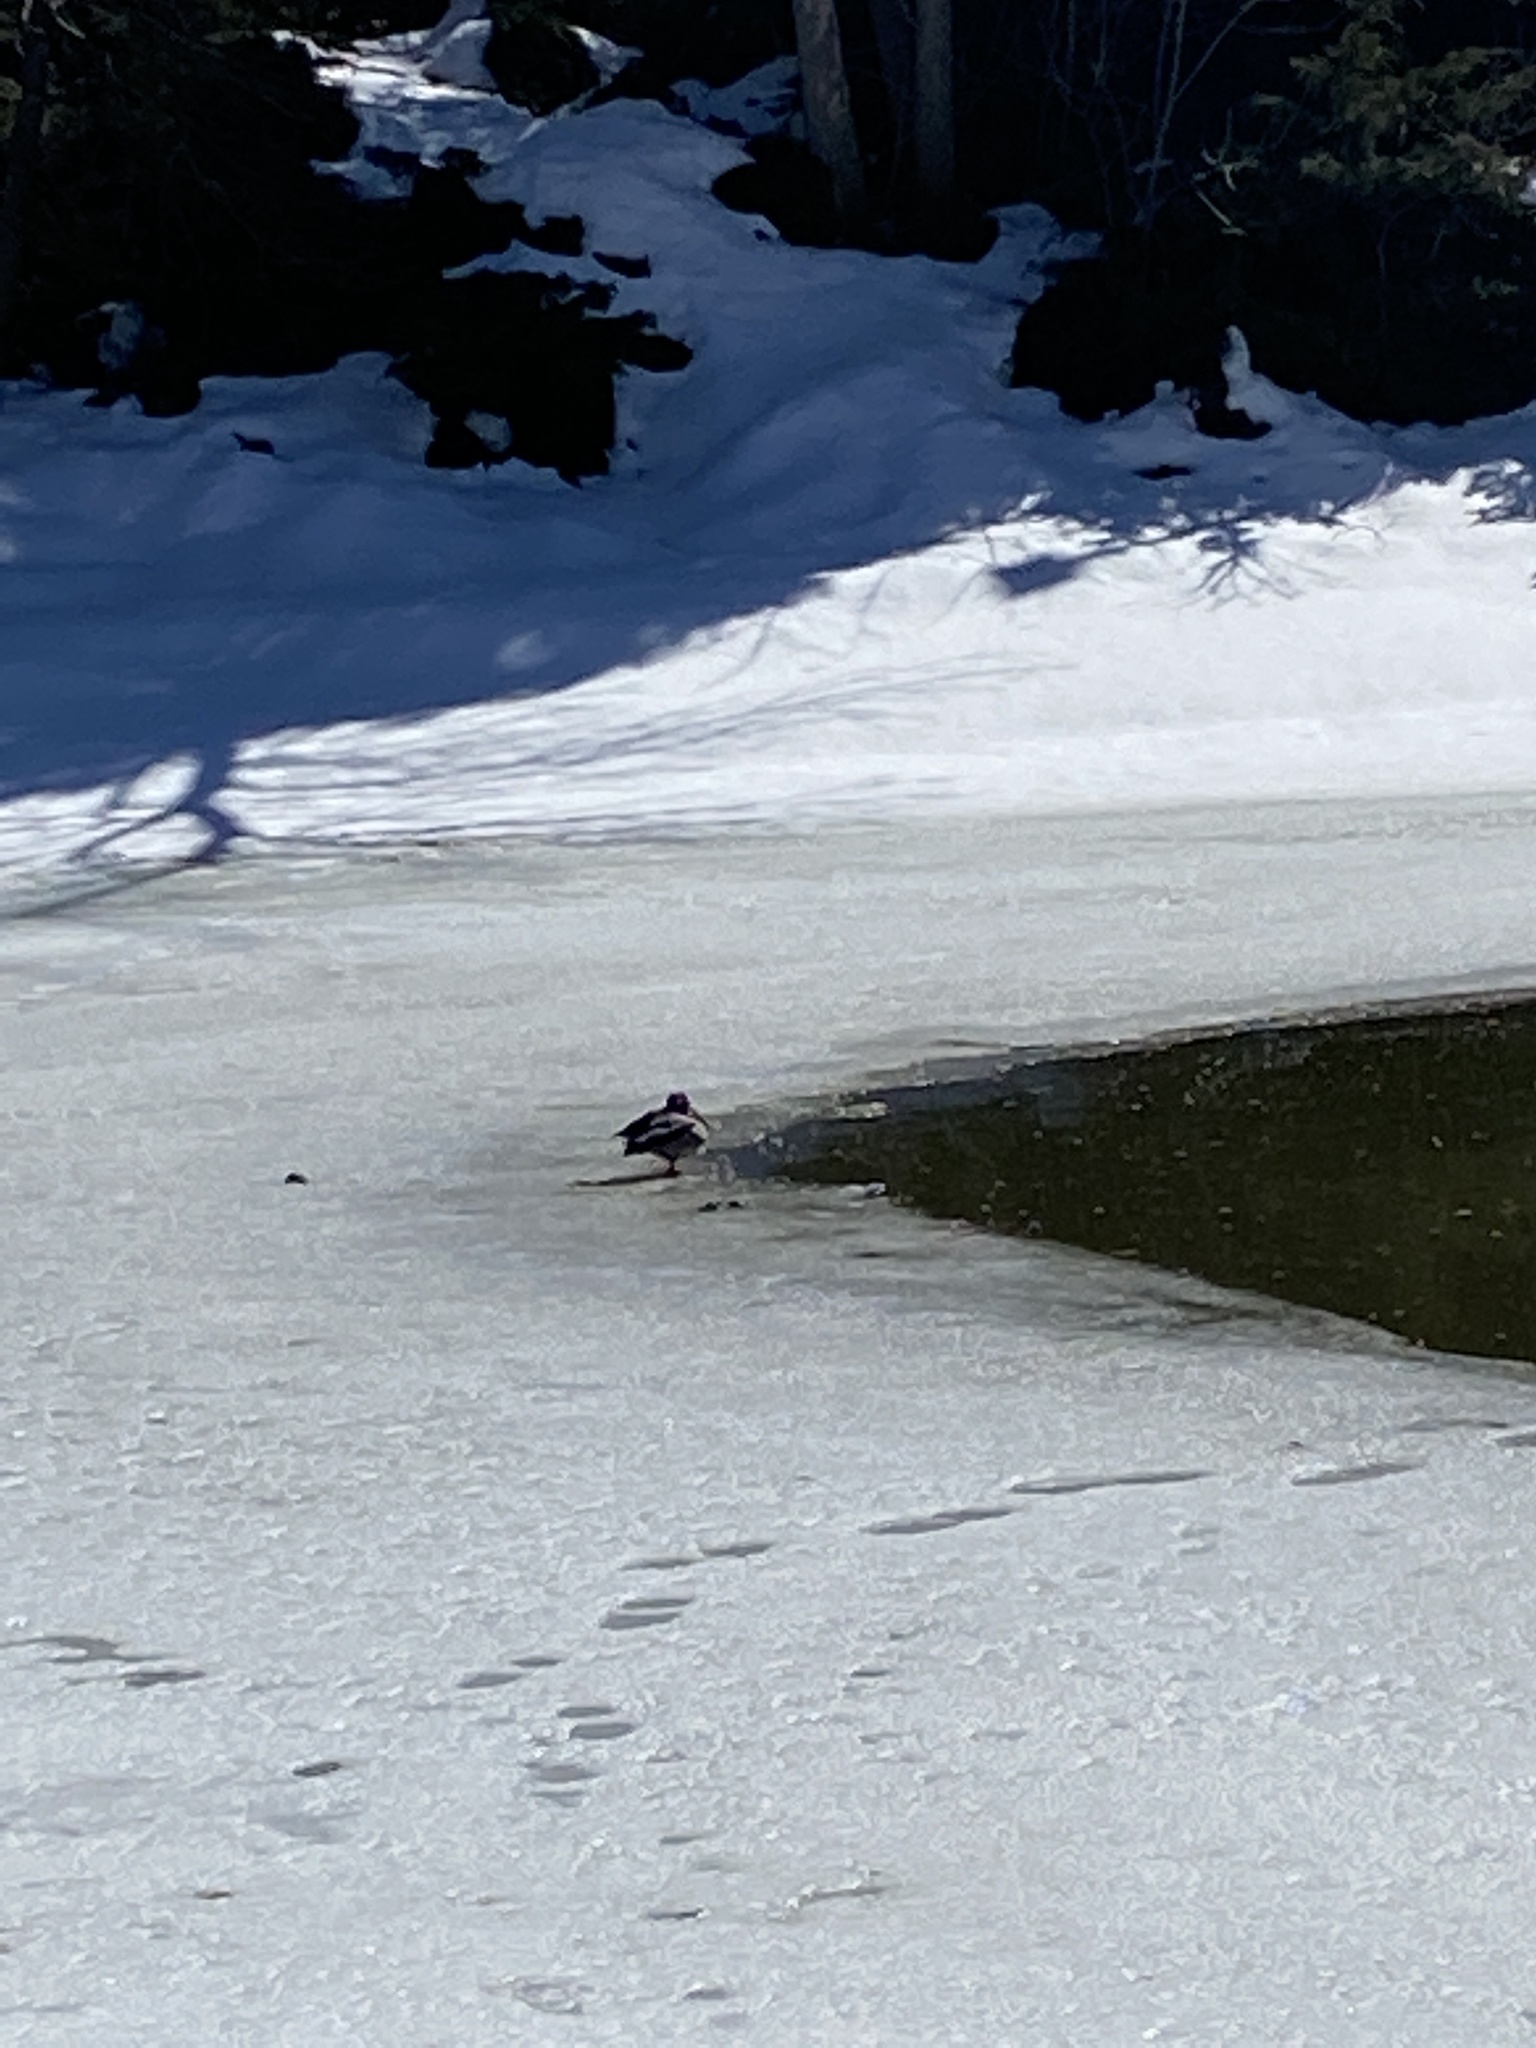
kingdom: Animalia
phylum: Chordata
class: Aves
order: Anseriformes
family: Anatidae
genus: Anas
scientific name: Anas platyrhynchos
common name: Mallard
